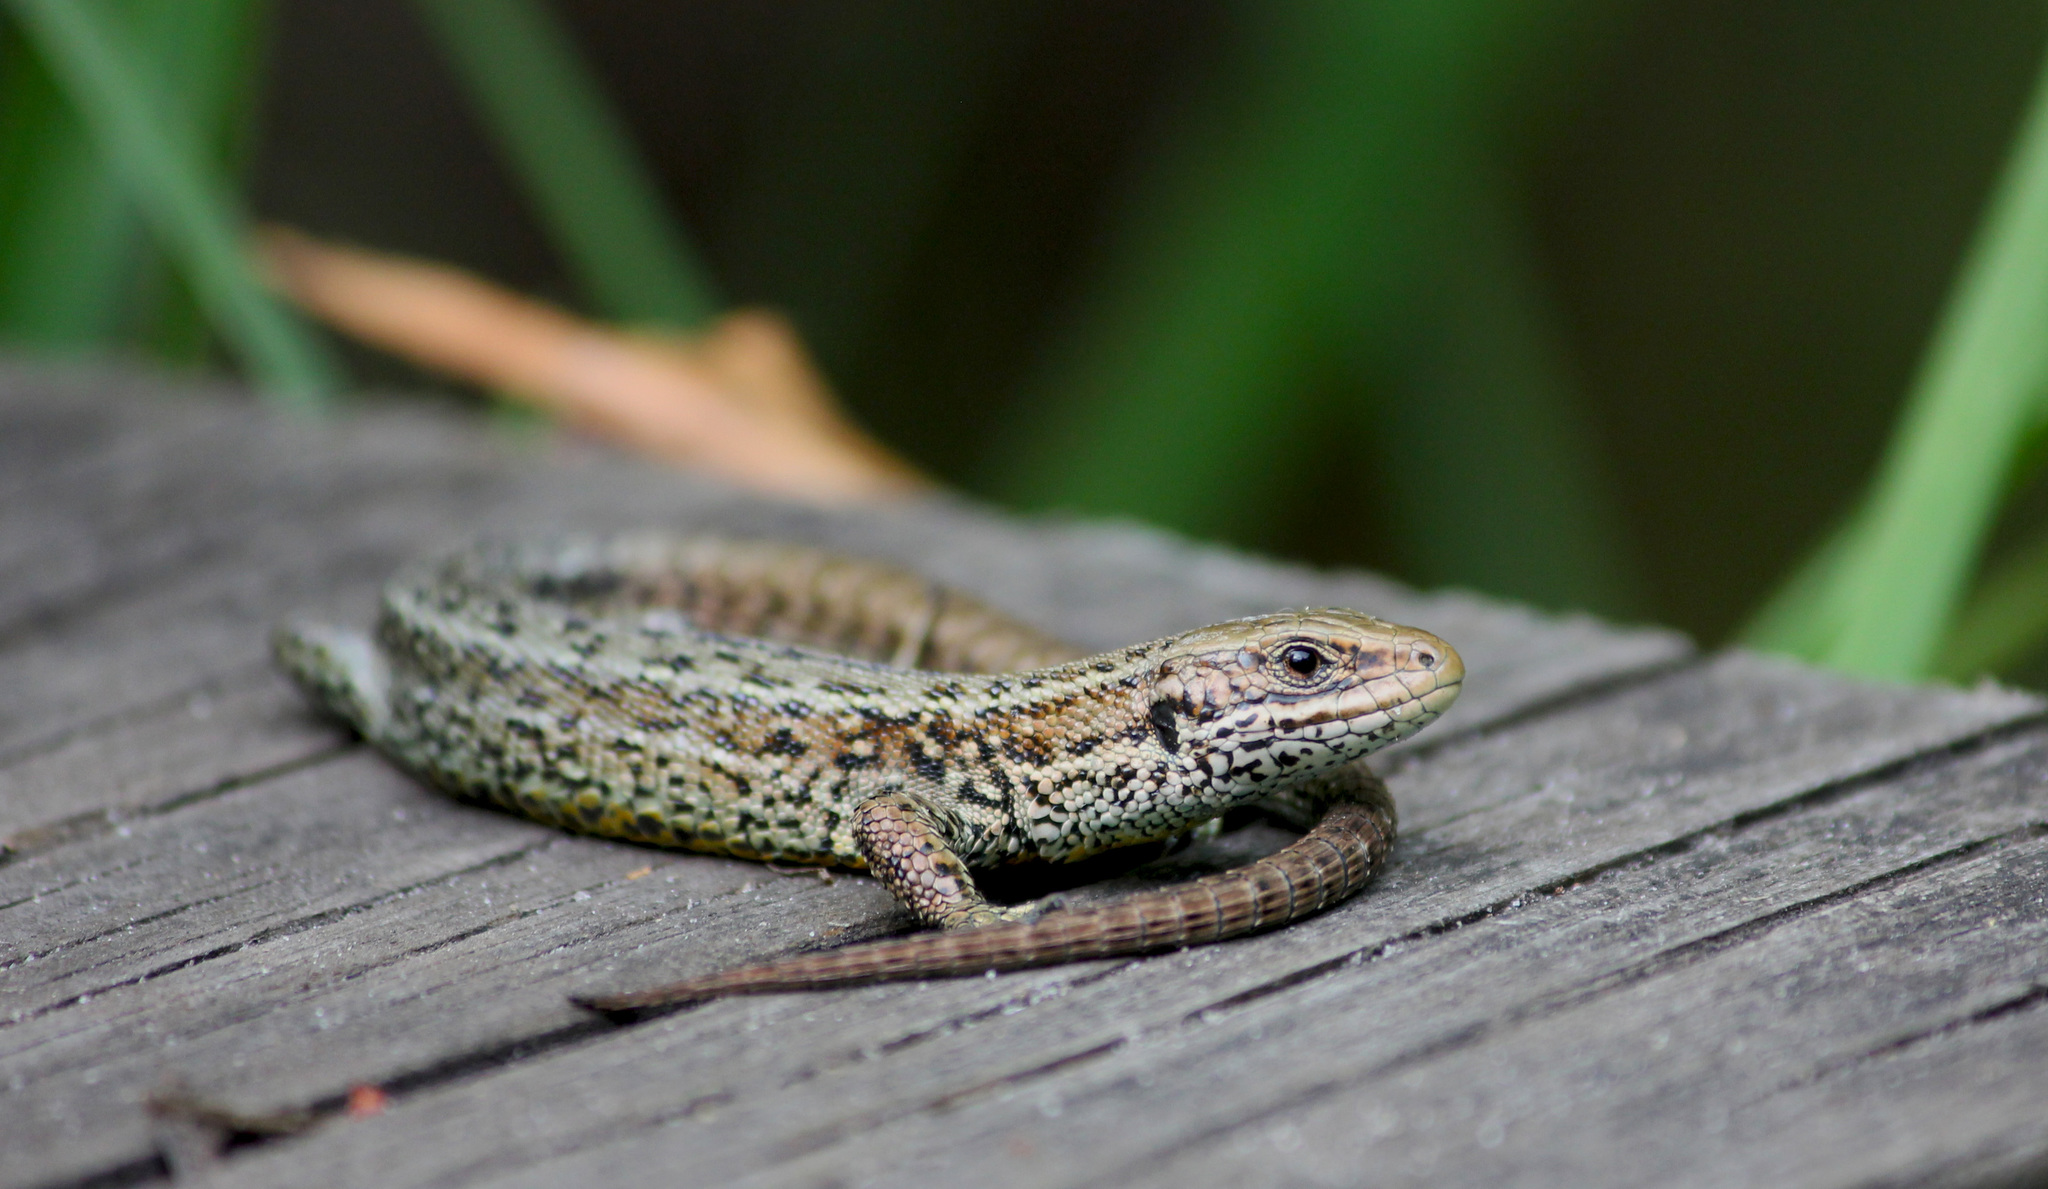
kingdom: Animalia
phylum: Chordata
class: Squamata
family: Lacertidae
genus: Zootoca
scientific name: Zootoca vivipara
